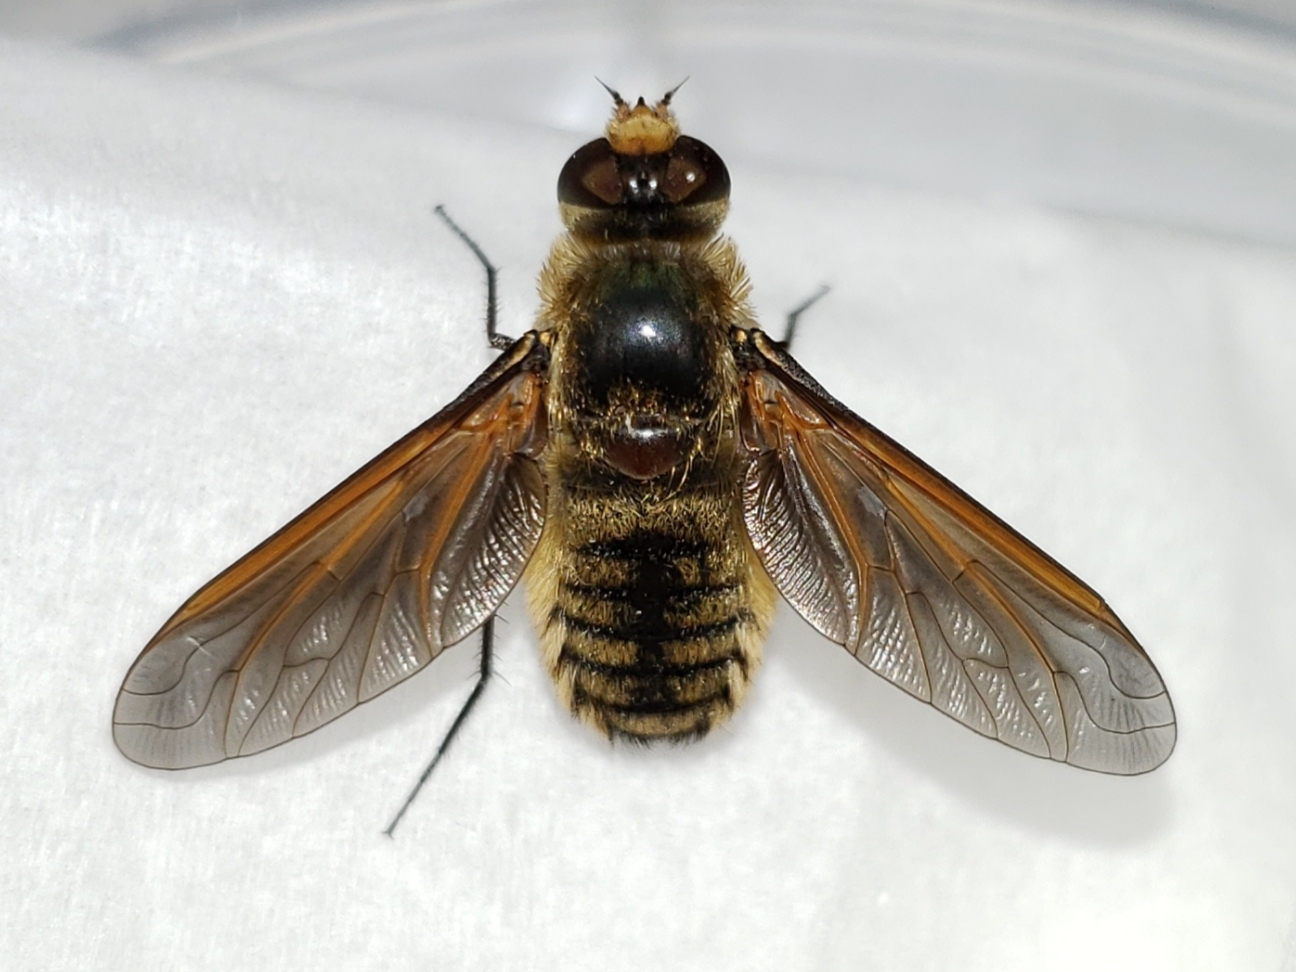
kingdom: Animalia
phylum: Arthropoda
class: Insecta
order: Diptera
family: Bombyliidae
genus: Poecilanthrax
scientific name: Poecilanthrax lucifer
